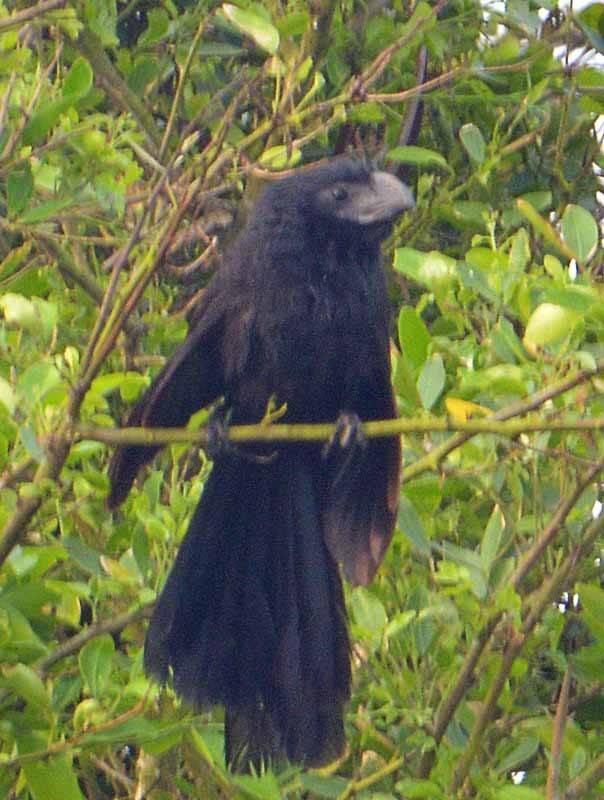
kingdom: Animalia
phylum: Chordata
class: Aves
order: Cuculiformes
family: Cuculidae
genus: Crotophaga
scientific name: Crotophaga sulcirostris
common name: Groove-billed ani
